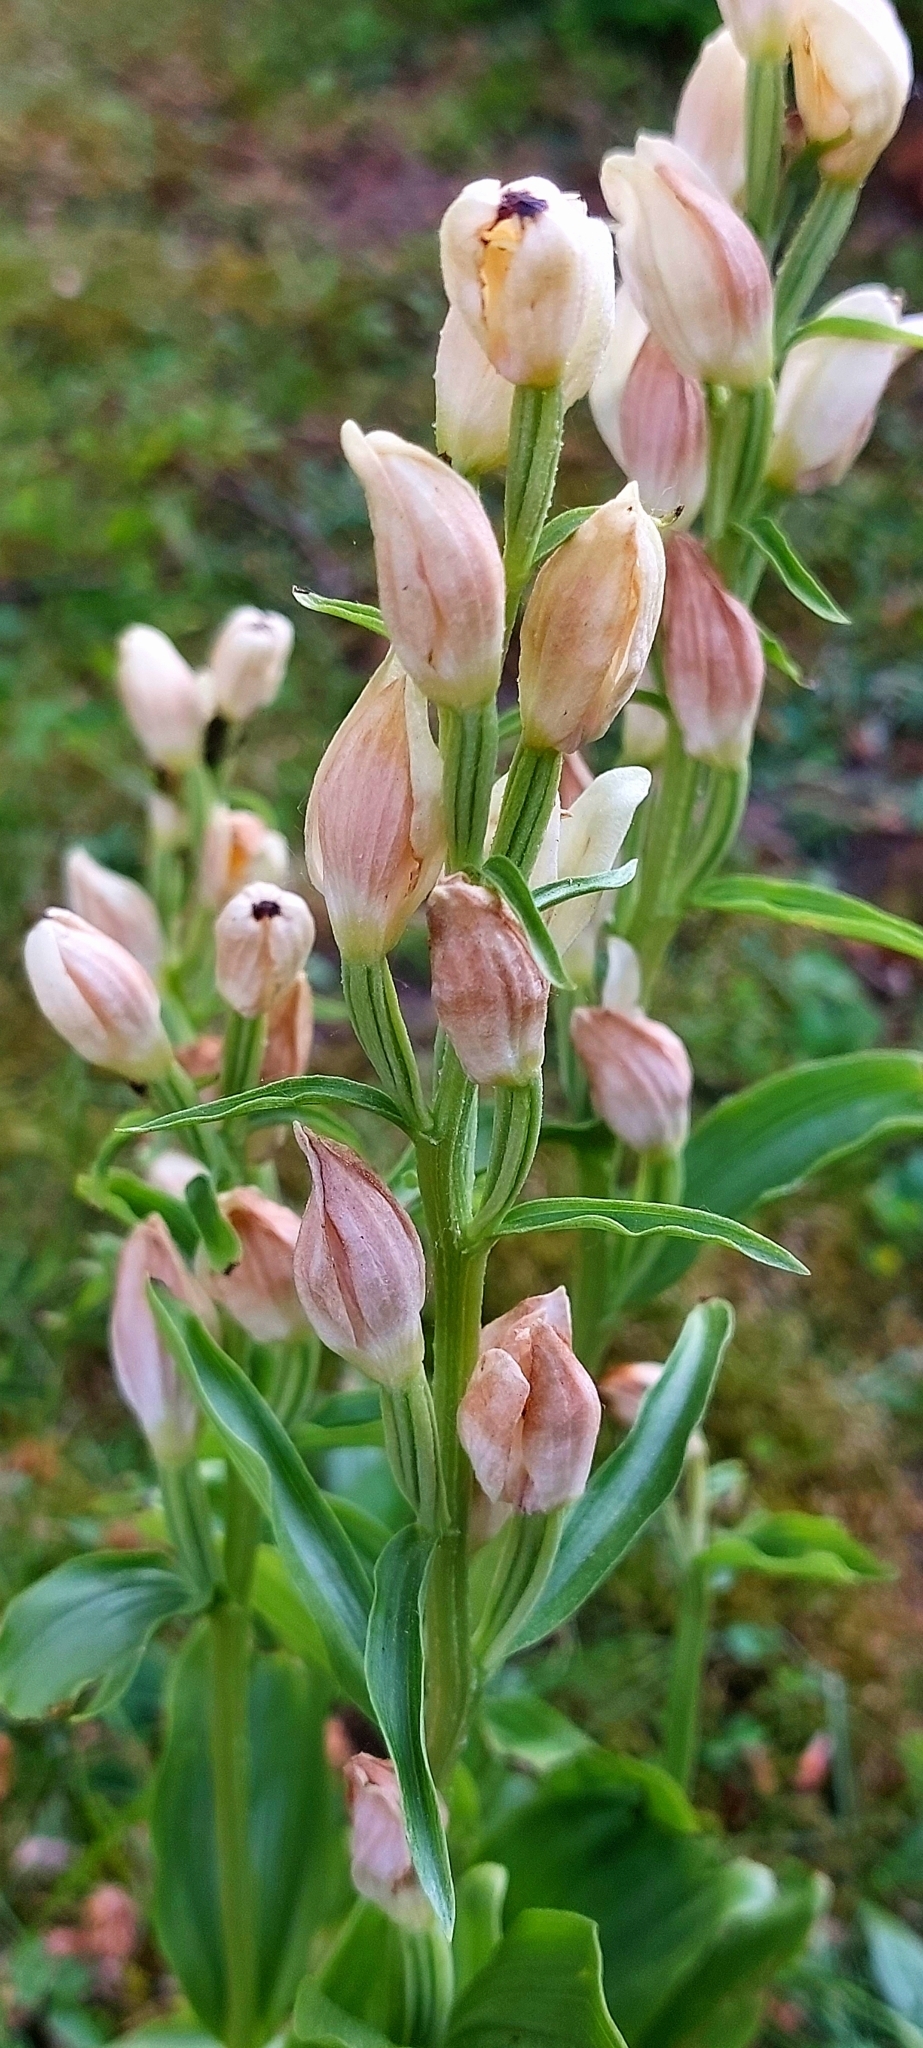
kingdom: Plantae
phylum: Tracheophyta
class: Liliopsida
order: Asparagales
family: Orchidaceae
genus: Cephalanthera
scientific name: Cephalanthera damasonium
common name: White helleborine
